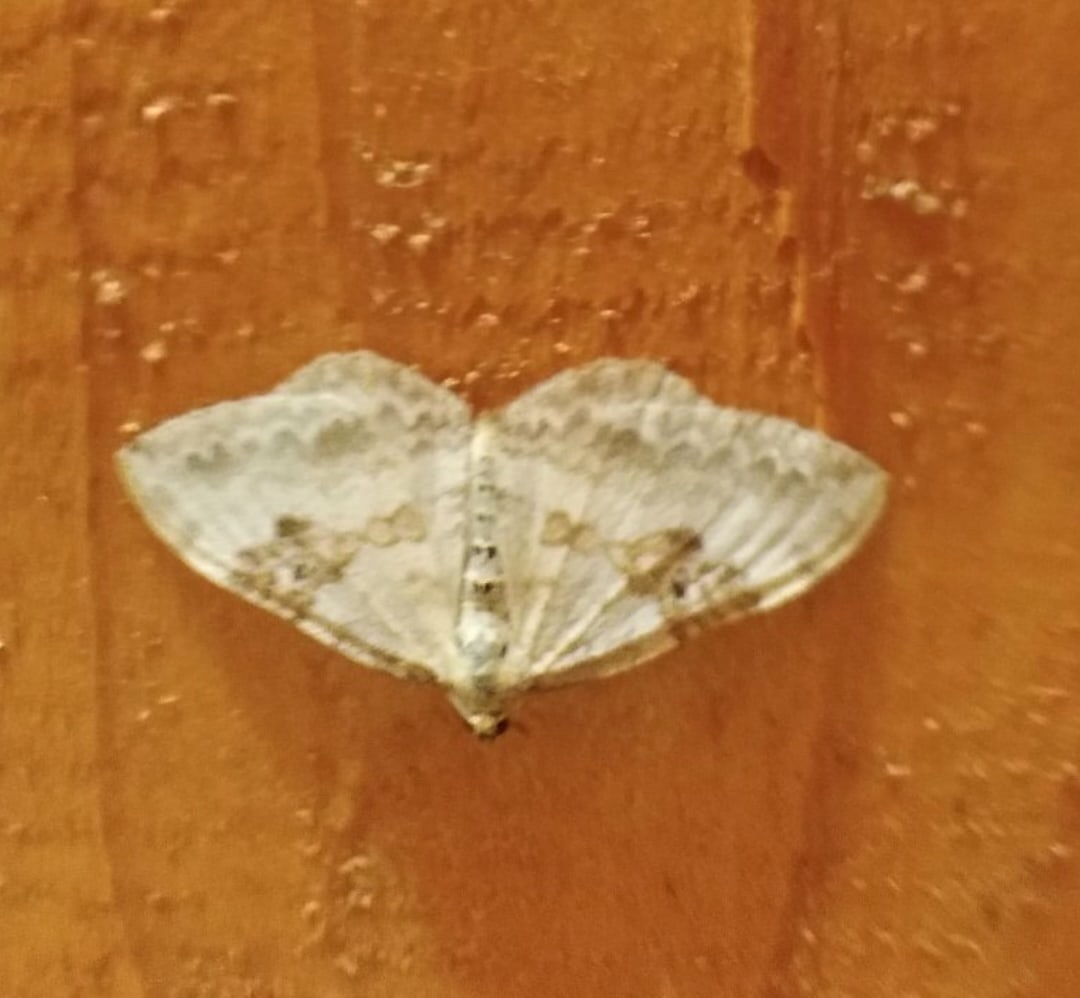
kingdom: Animalia
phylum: Arthropoda
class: Insecta
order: Lepidoptera
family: Geometridae
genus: Xanthorhoe
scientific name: Xanthorhoe montanata
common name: Silver-ground carpet
